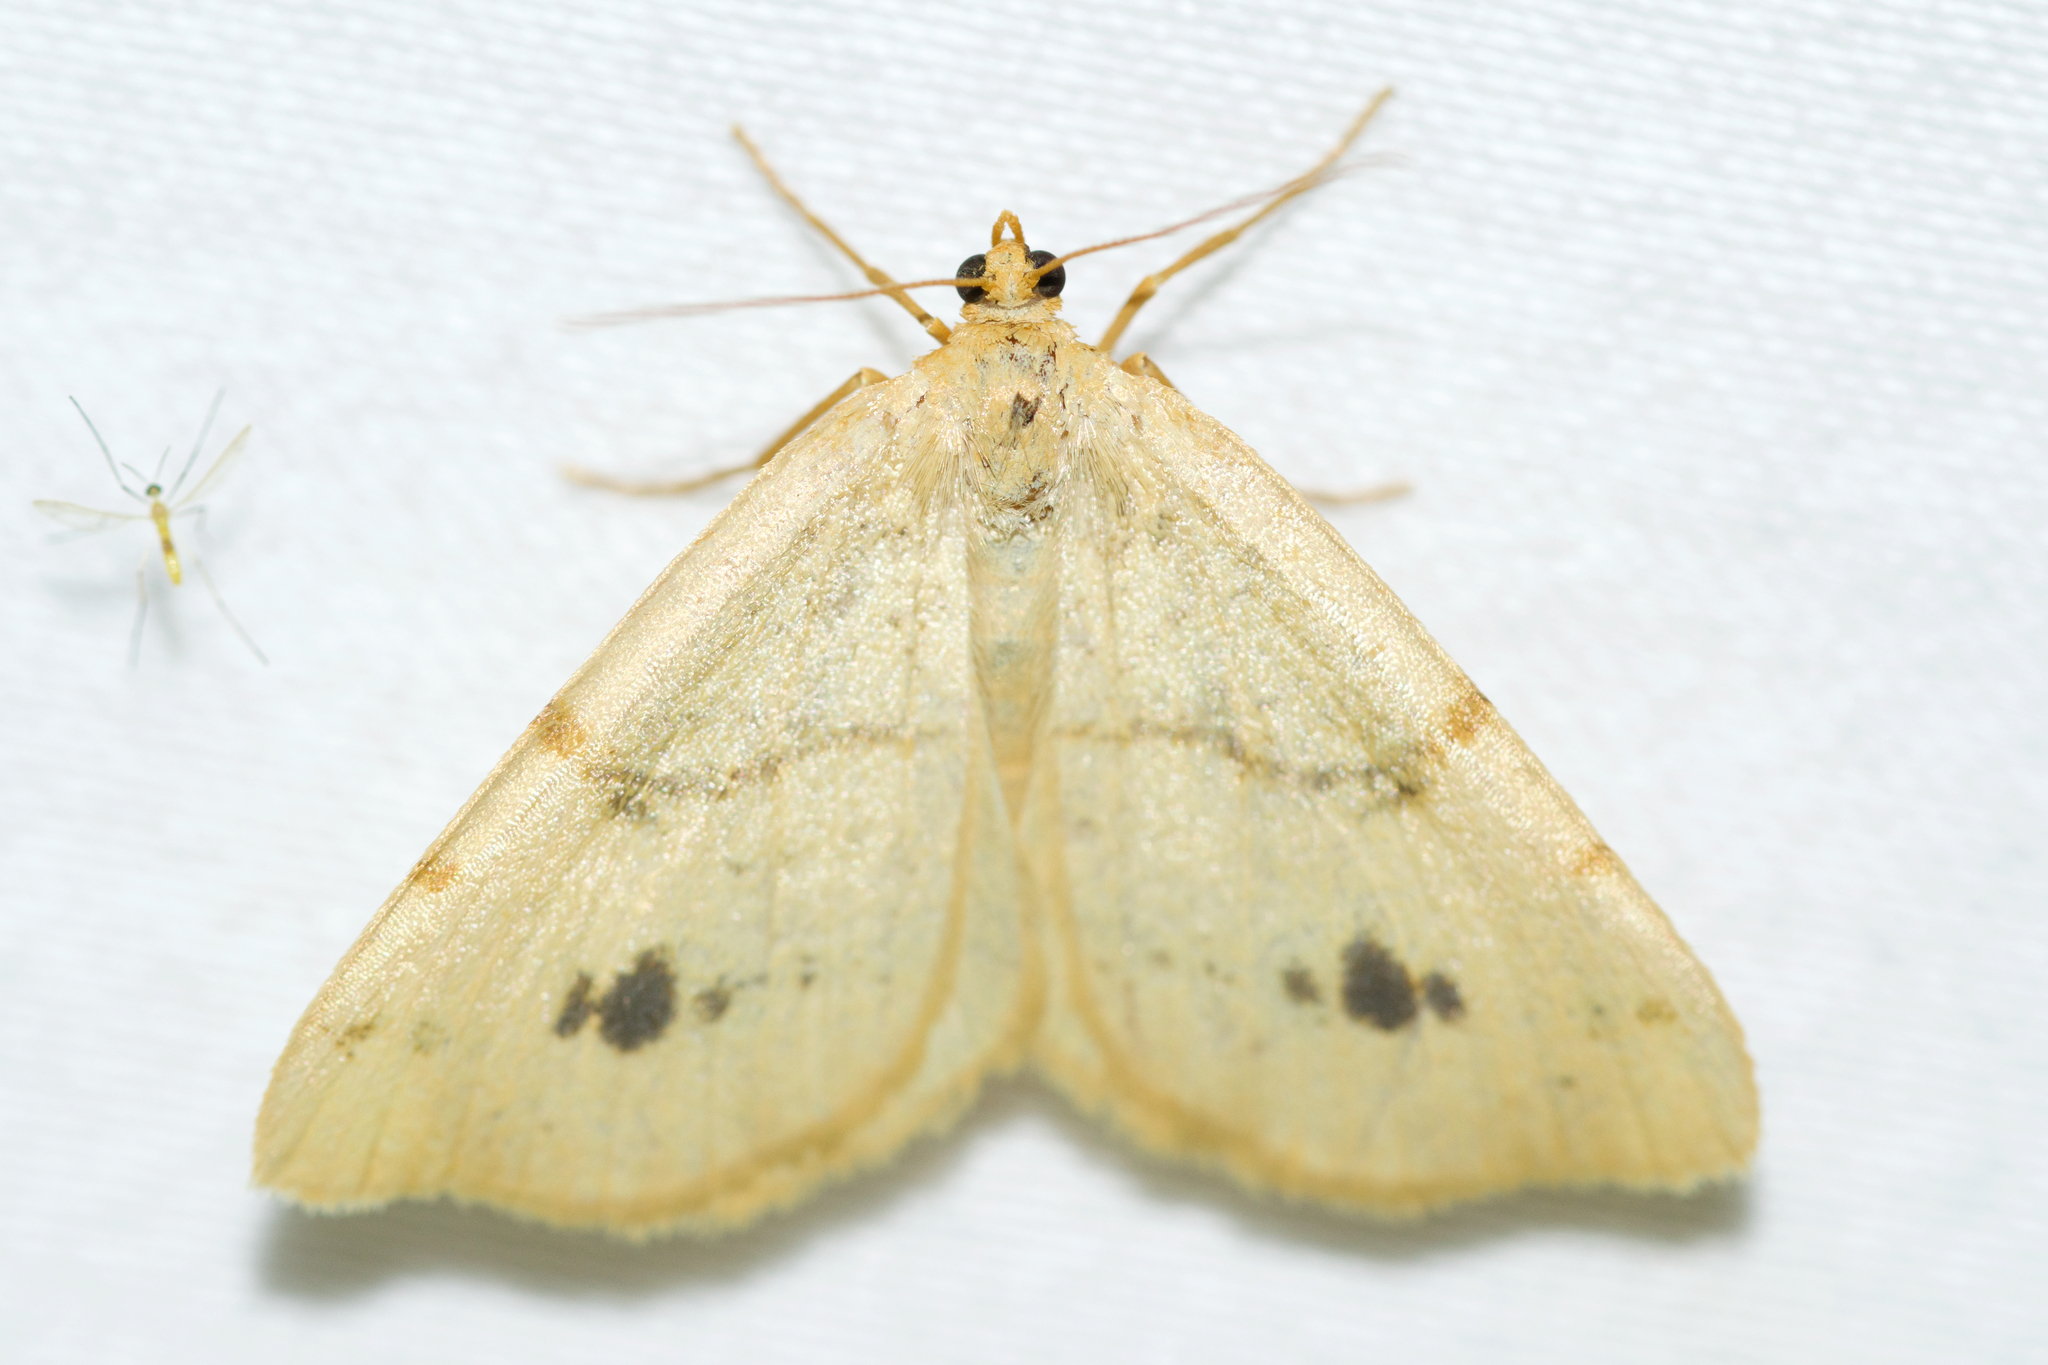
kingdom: Animalia
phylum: Arthropoda
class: Insecta
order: Lepidoptera
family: Geometridae
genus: Macaria
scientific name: Macaria ribearia
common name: Currant spanworm moth
